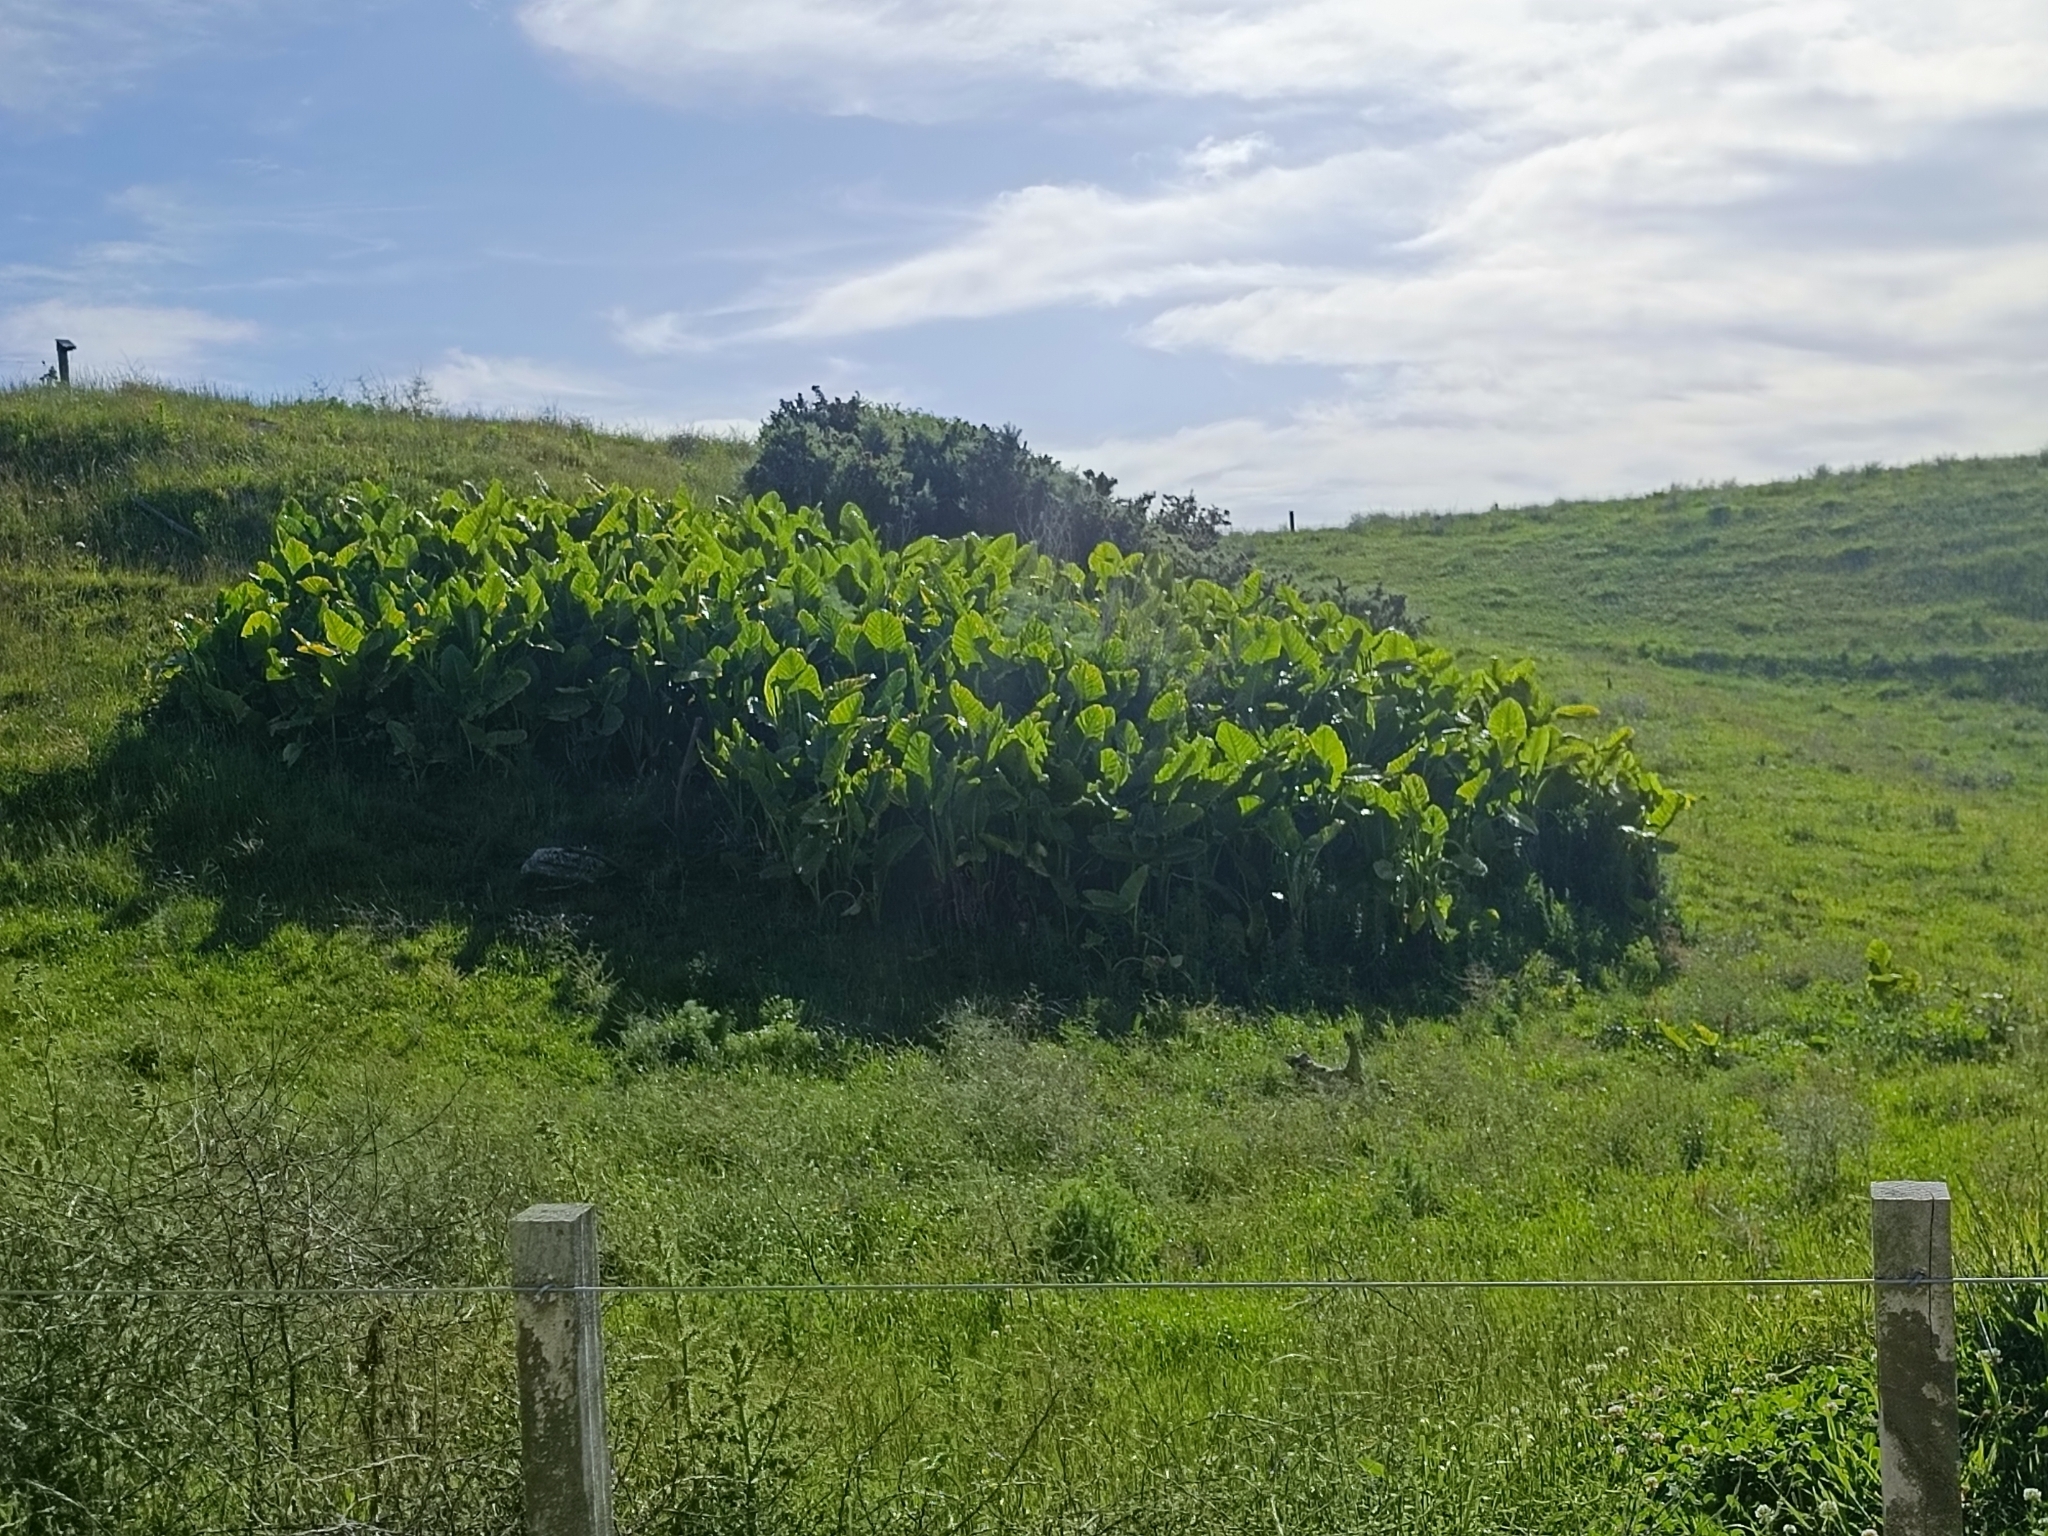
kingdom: Plantae
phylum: Tracheophyta
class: Liliopsida
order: Alismatales
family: Araceae
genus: Alocasia
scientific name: Alocasia brisbanensis
